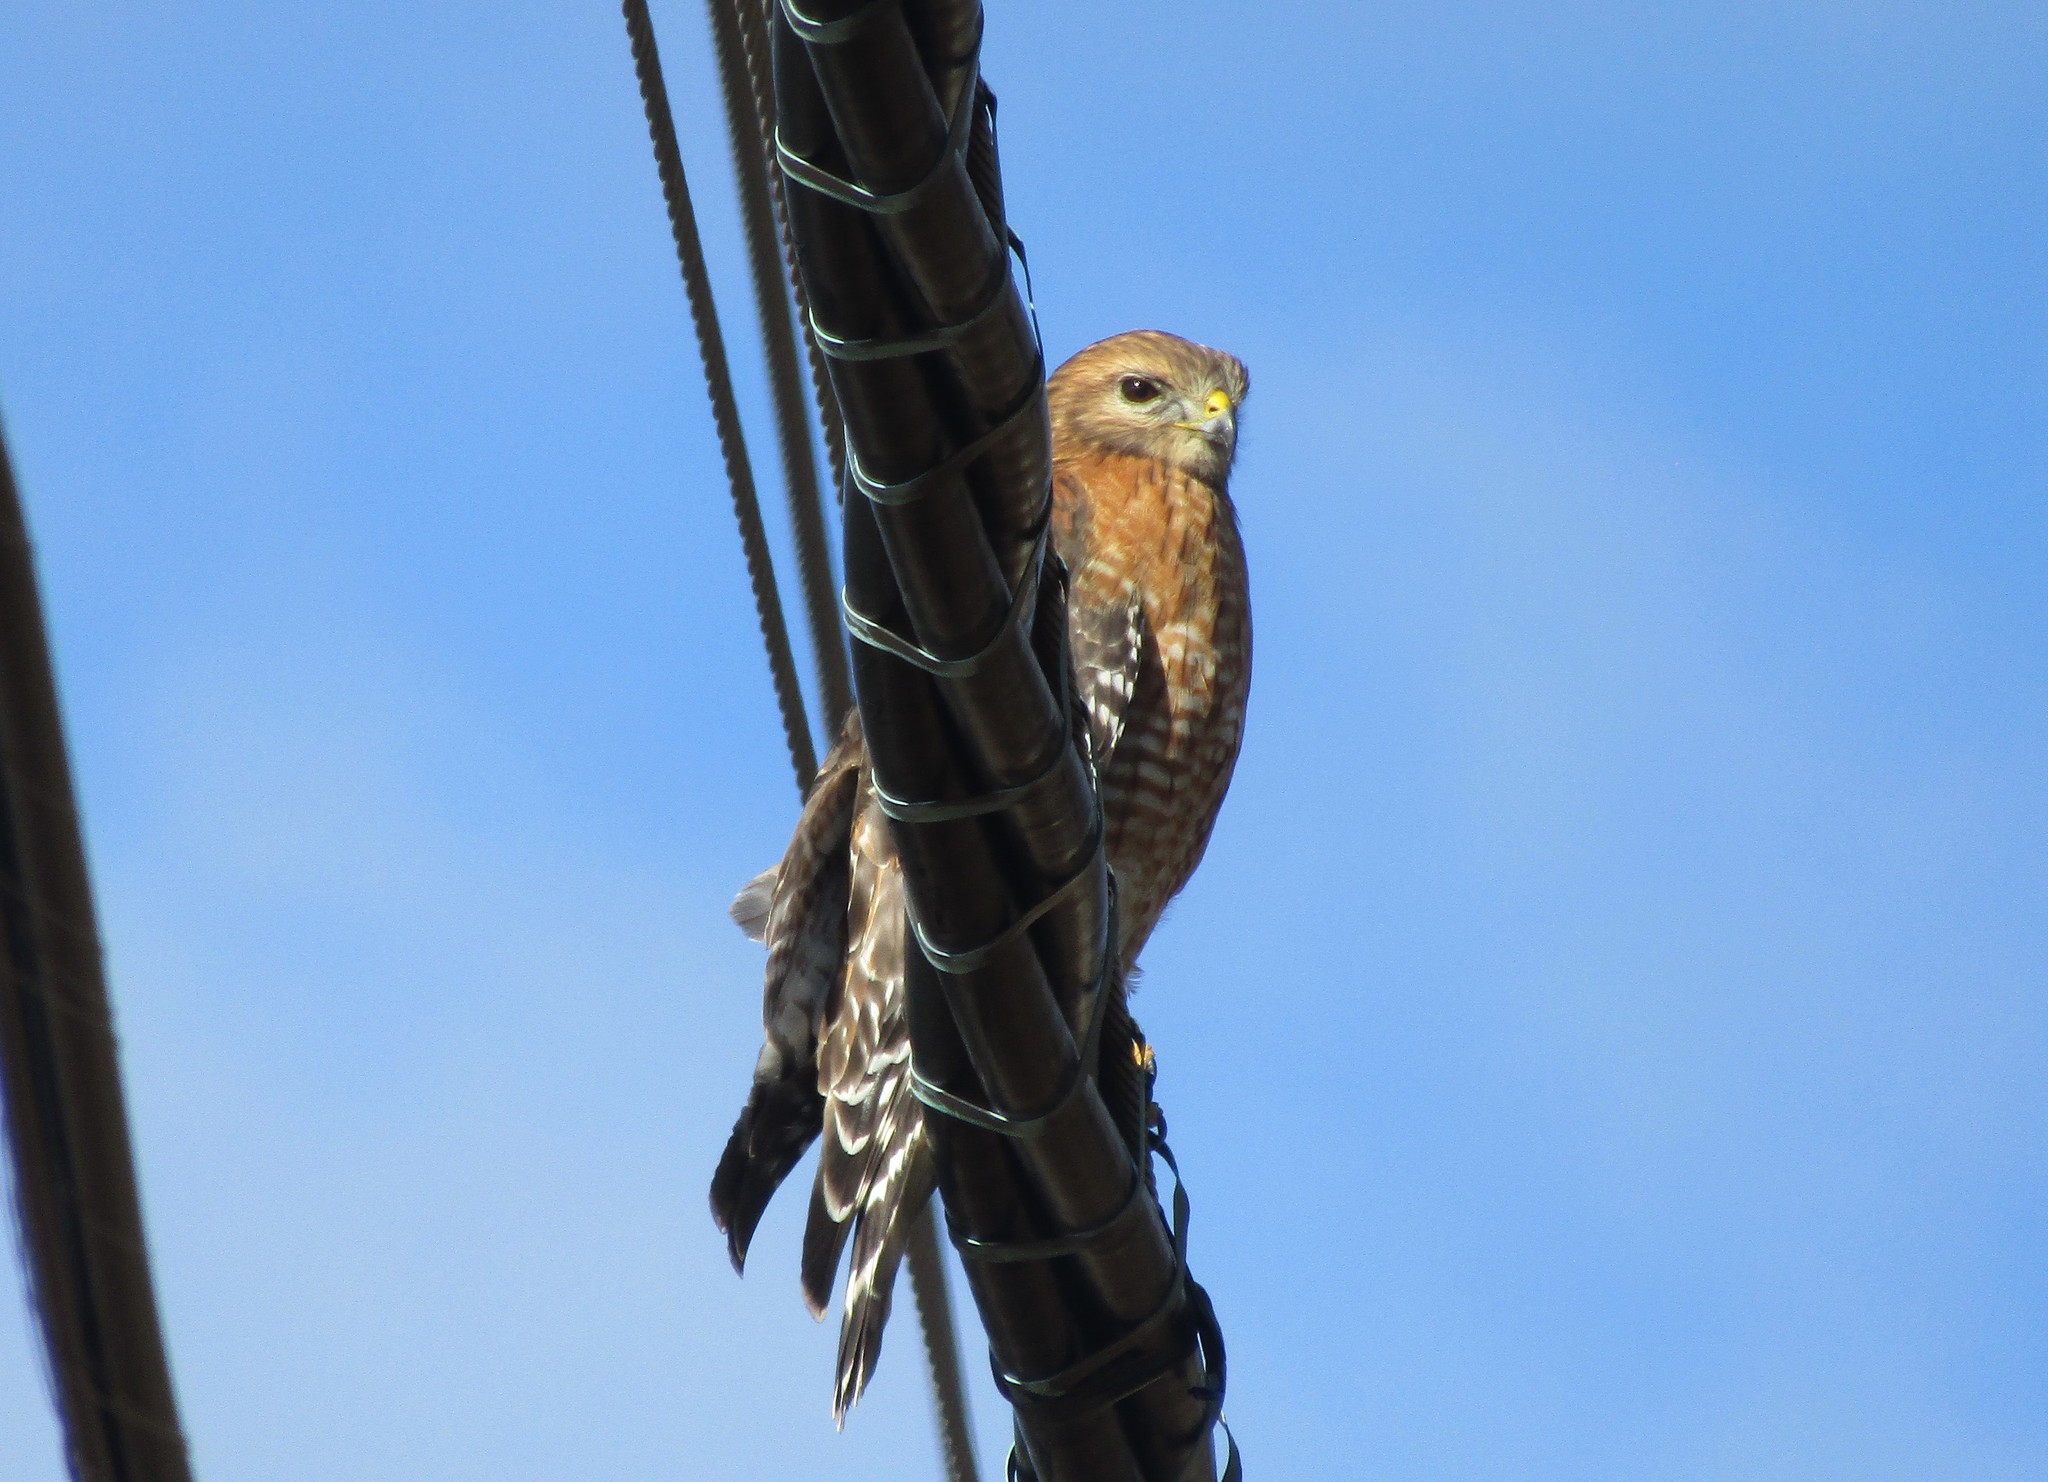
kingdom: Animalia
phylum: Chordata
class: Aves
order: Accipitriformes
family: Accipitridae
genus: Buteo
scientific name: Buteo lineatus
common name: Red-shouldered hawk
